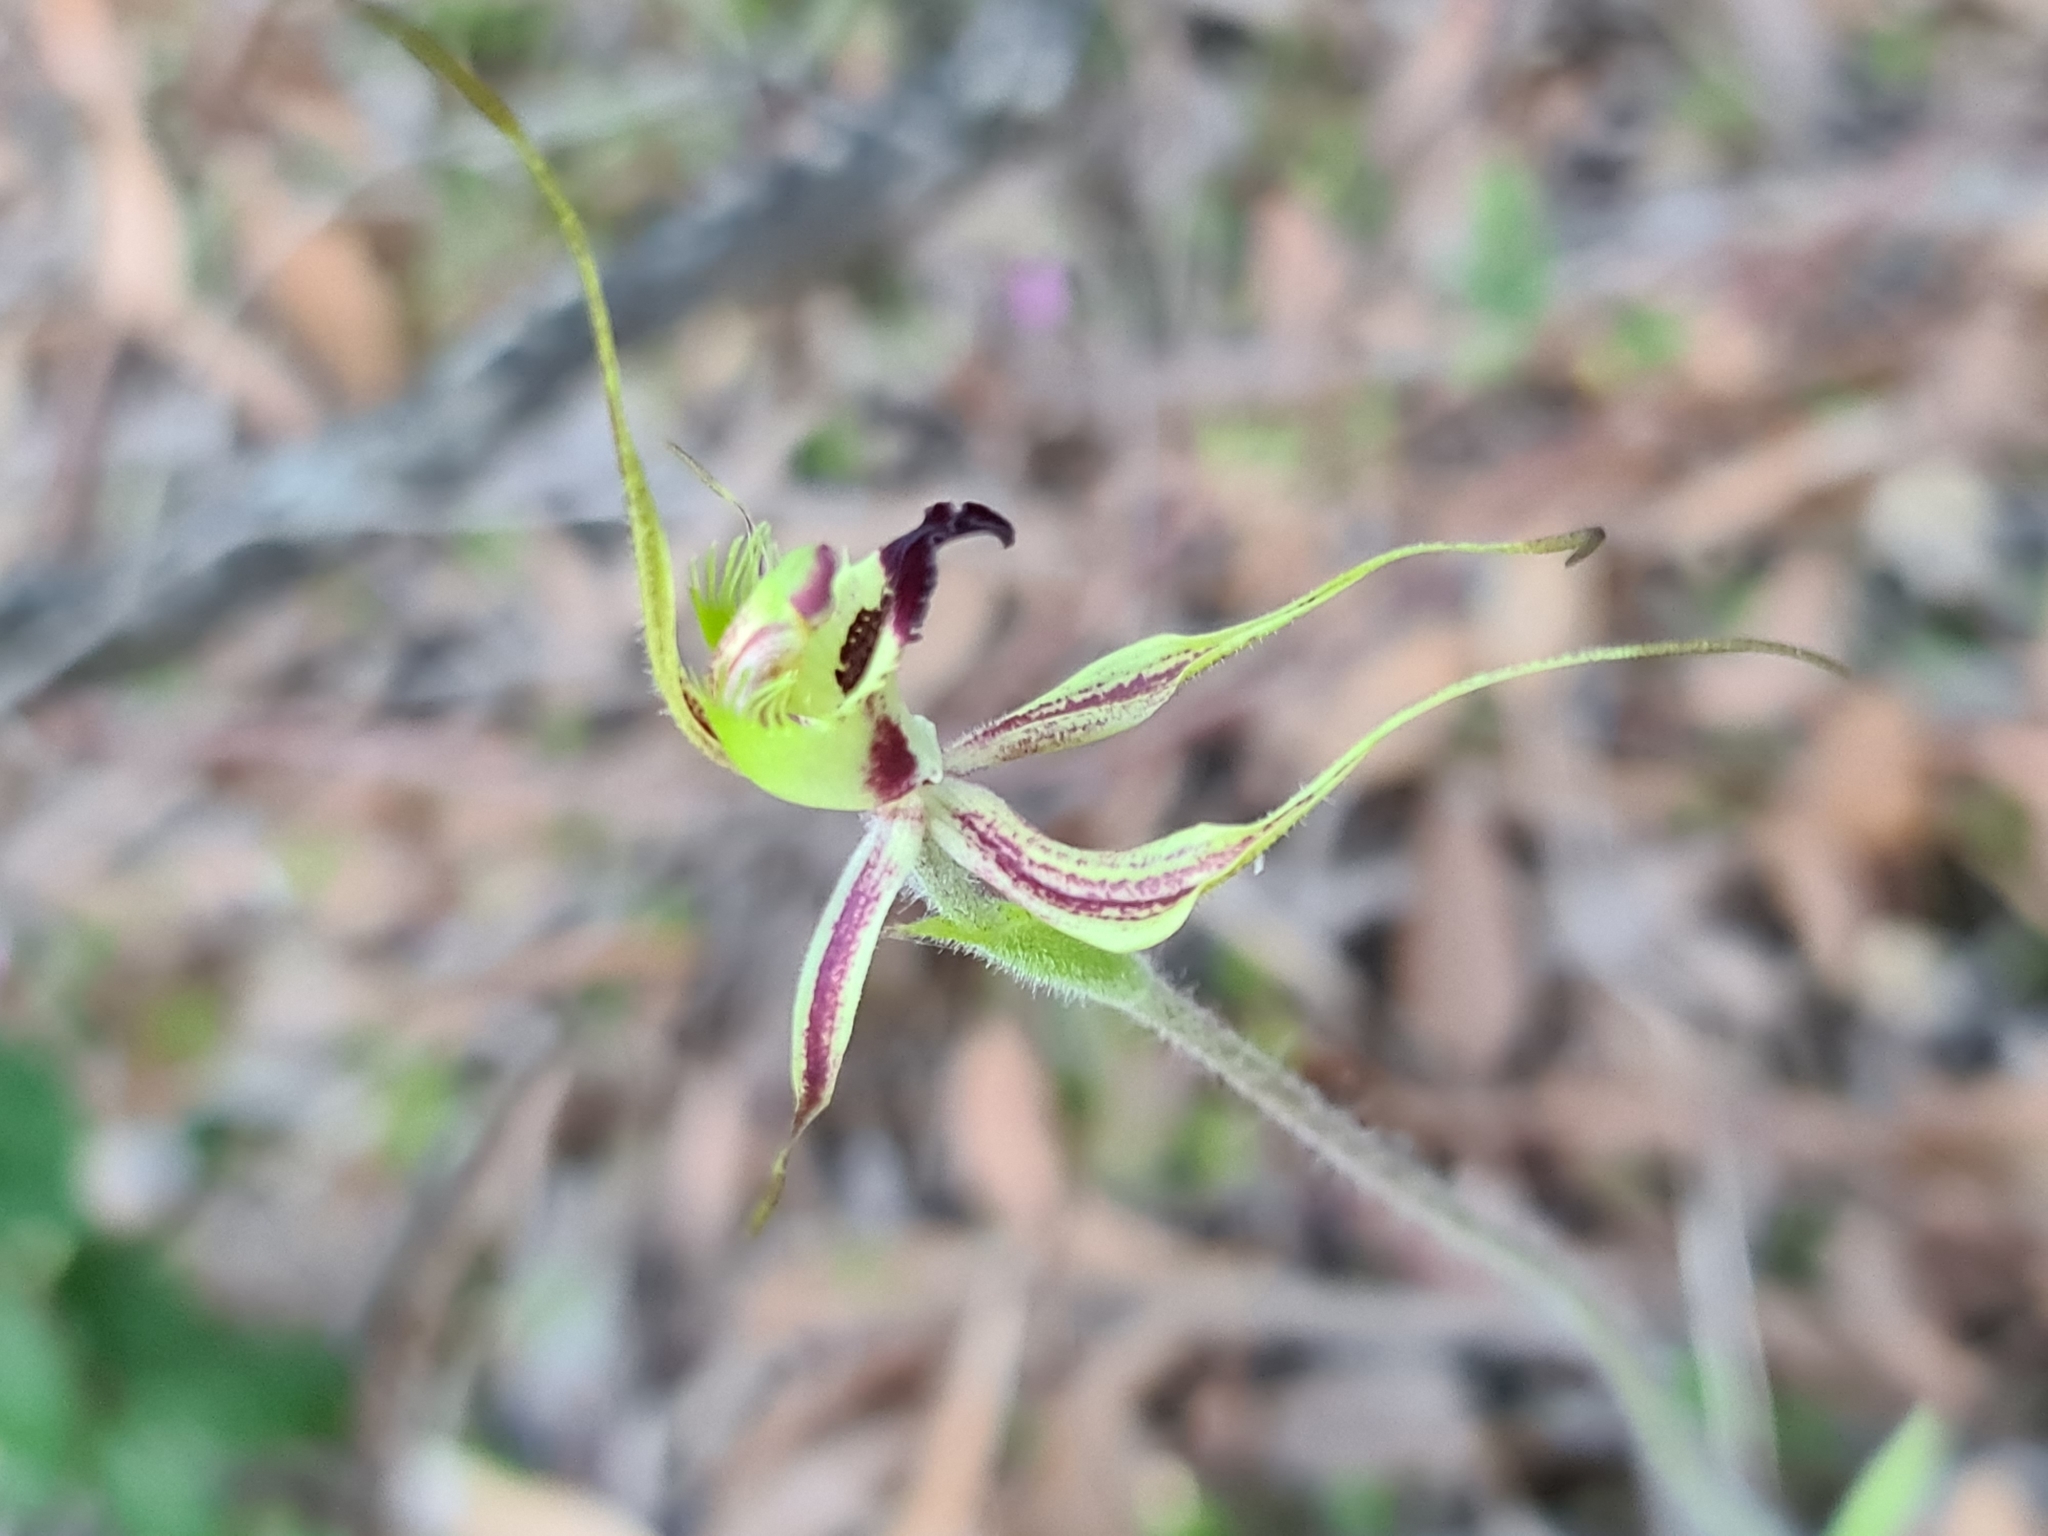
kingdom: Plantae
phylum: Tracheophyta
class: Liliopsida
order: Asparagales
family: Orchidaceae
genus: Caladenia
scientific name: Caladenia attingens
